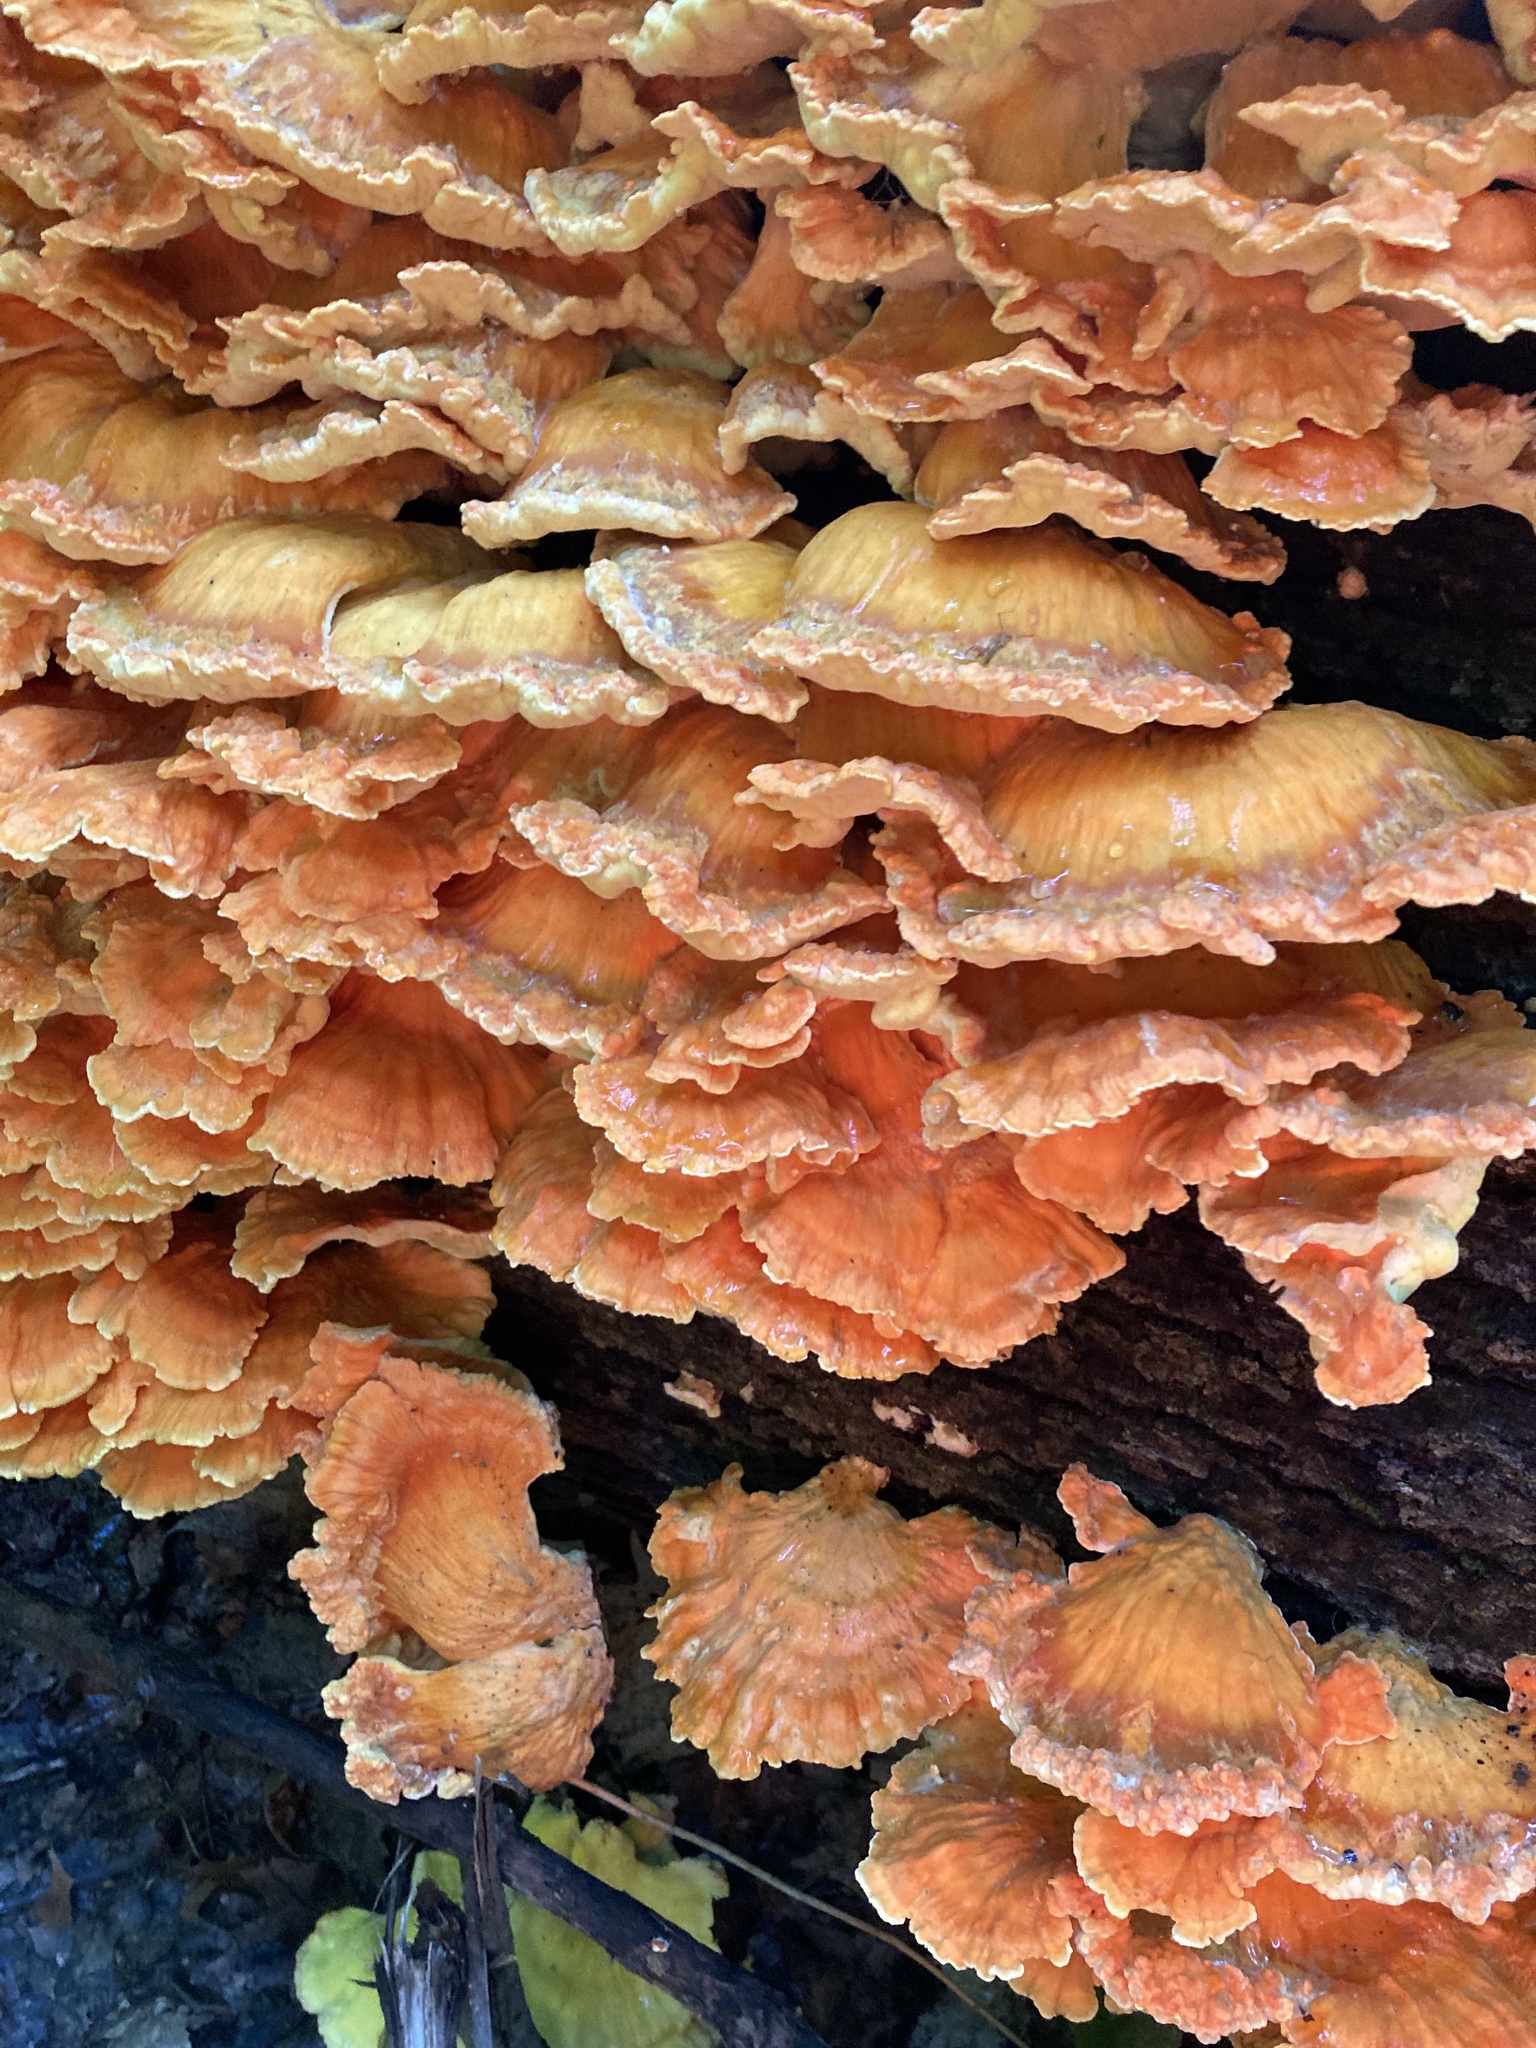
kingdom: Fungi
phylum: Basidiomycota
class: Agaricomycetes
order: Polyporales
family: Laetiporaceae
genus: Laetiporus
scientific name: Laetiporus sulphureus
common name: Chicken of the woods
